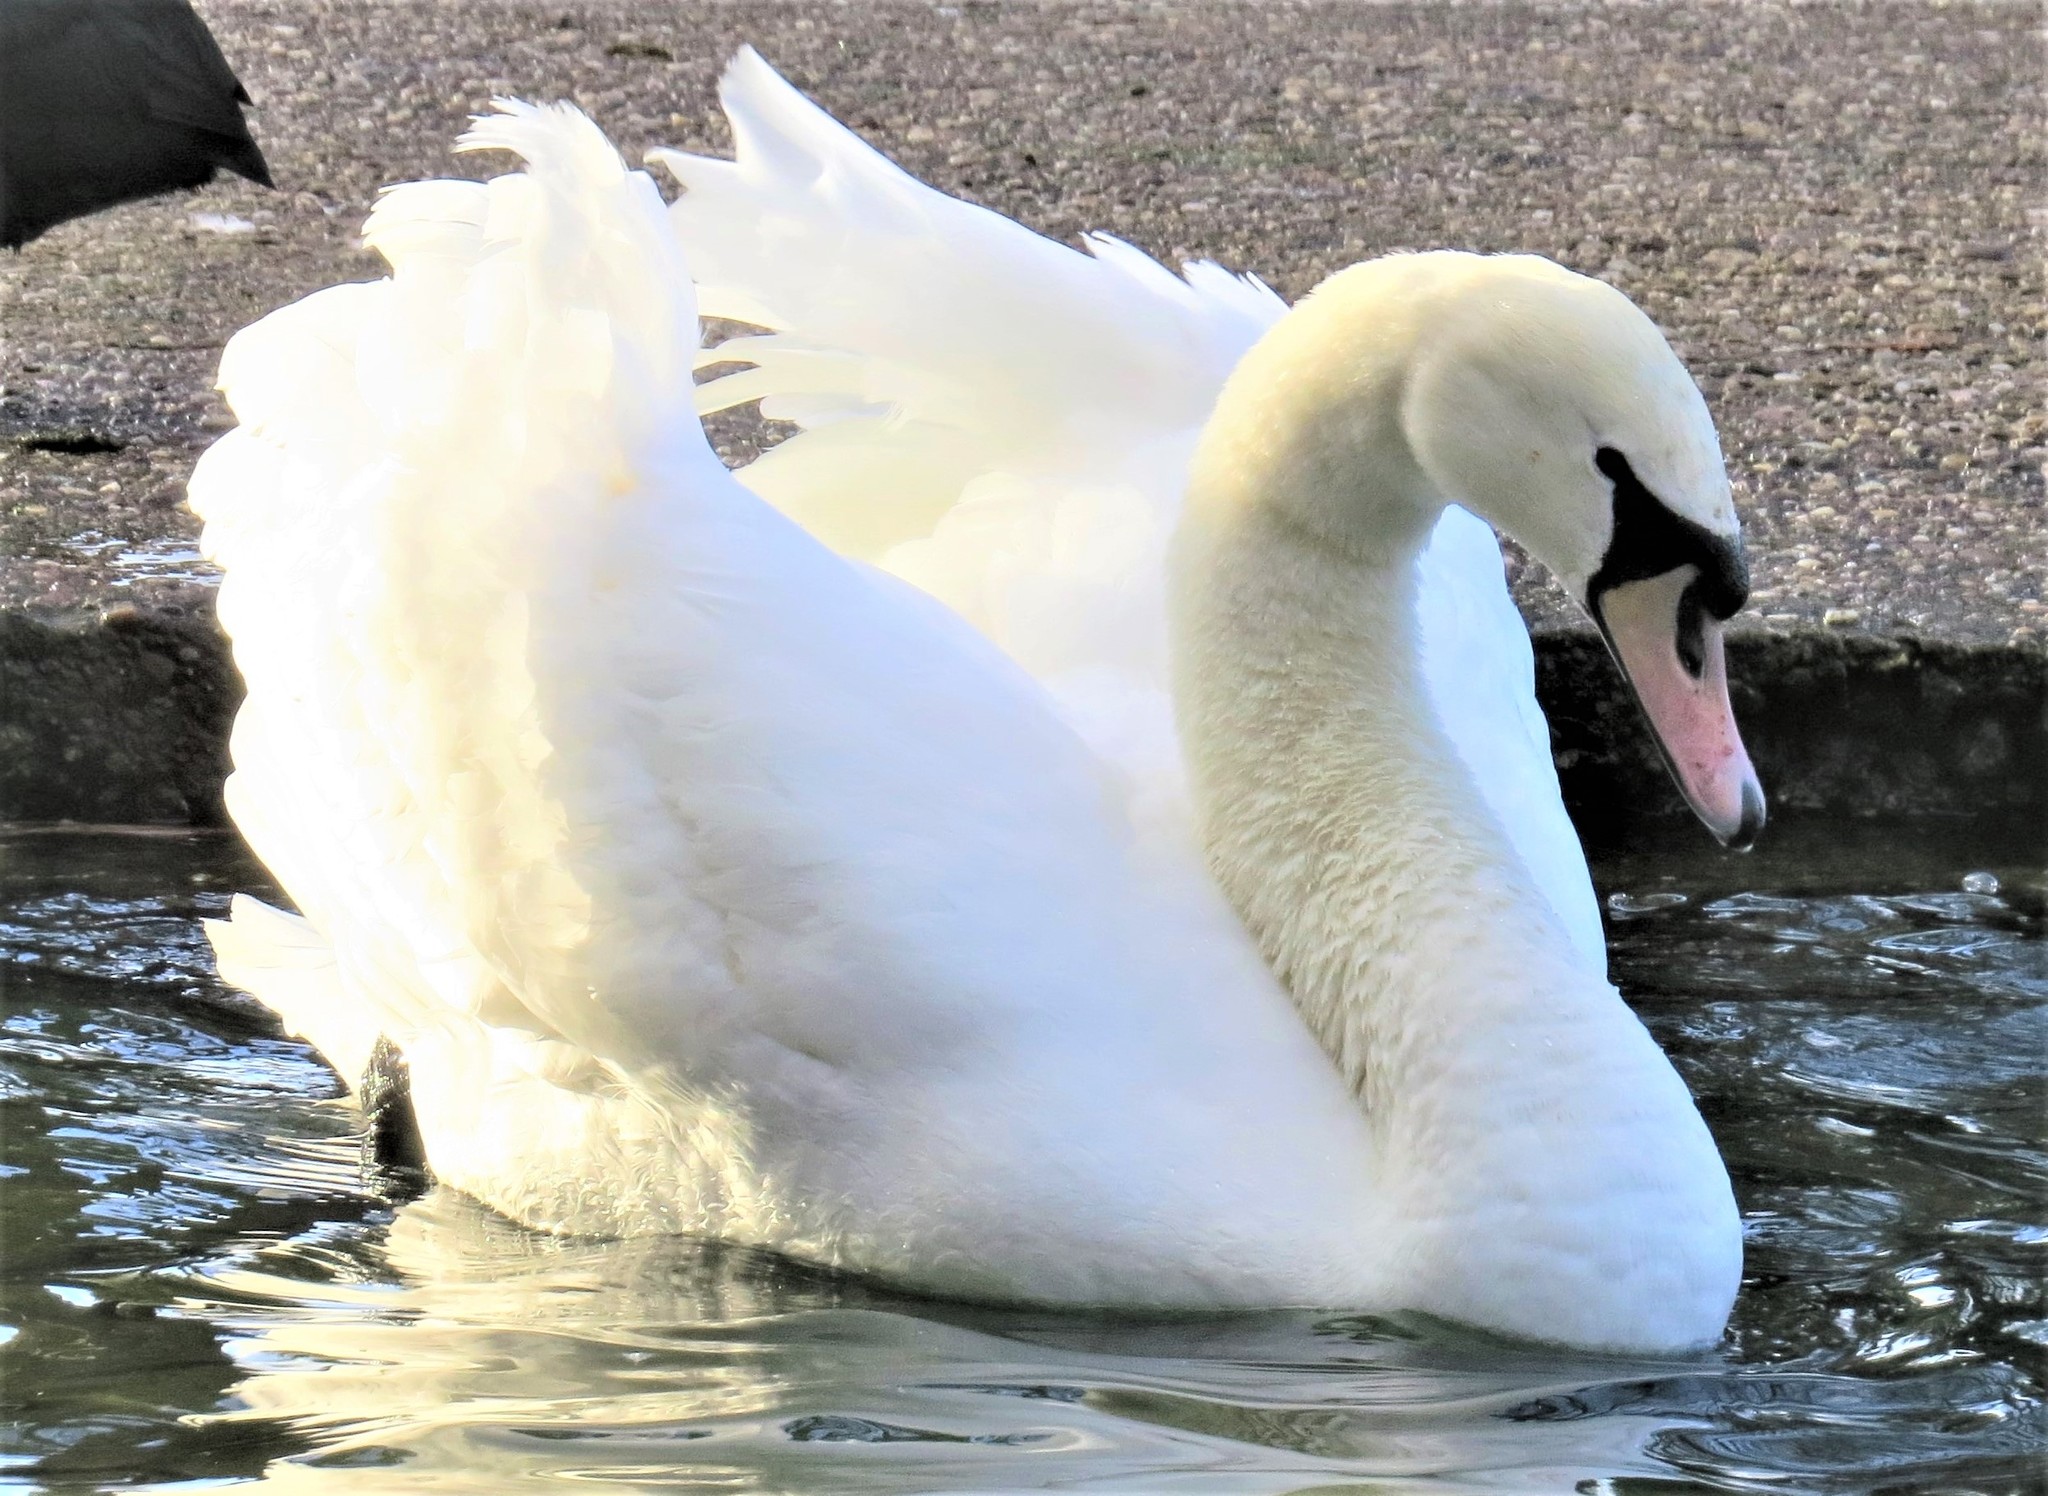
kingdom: Animalia
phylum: Chordata
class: Aves
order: Anseriformes
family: Anatidae
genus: Cygnus
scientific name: Cygnus olor
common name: Mute swan
